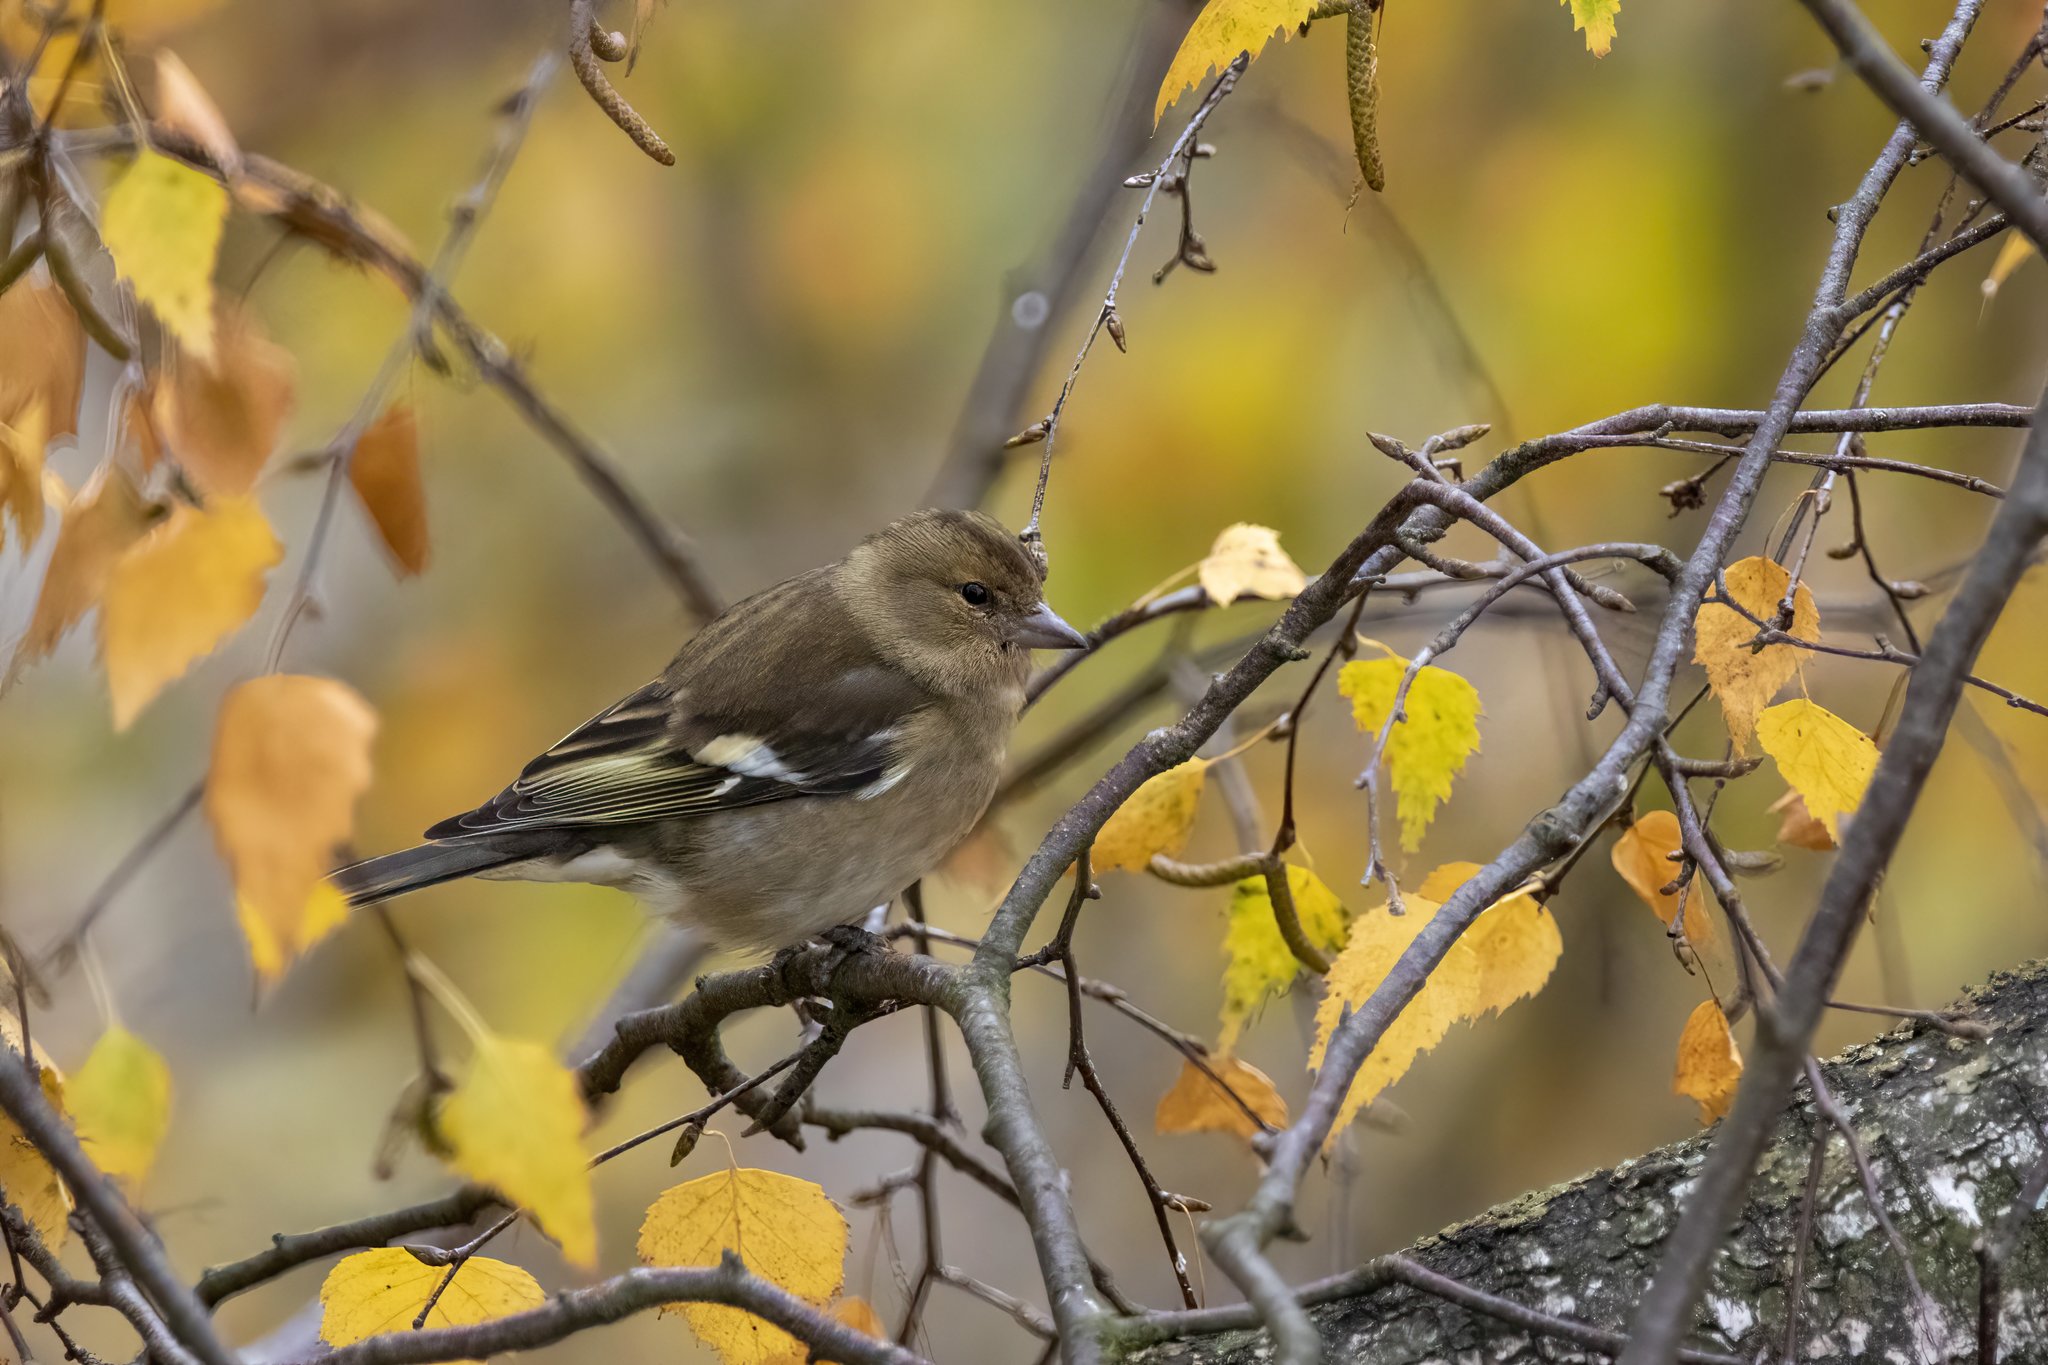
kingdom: Animalia
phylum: Chordata
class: Aves
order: Passeriformes
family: Fringillidae
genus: Fringilla
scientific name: Fringilla coelebs
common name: Common chaffinch
